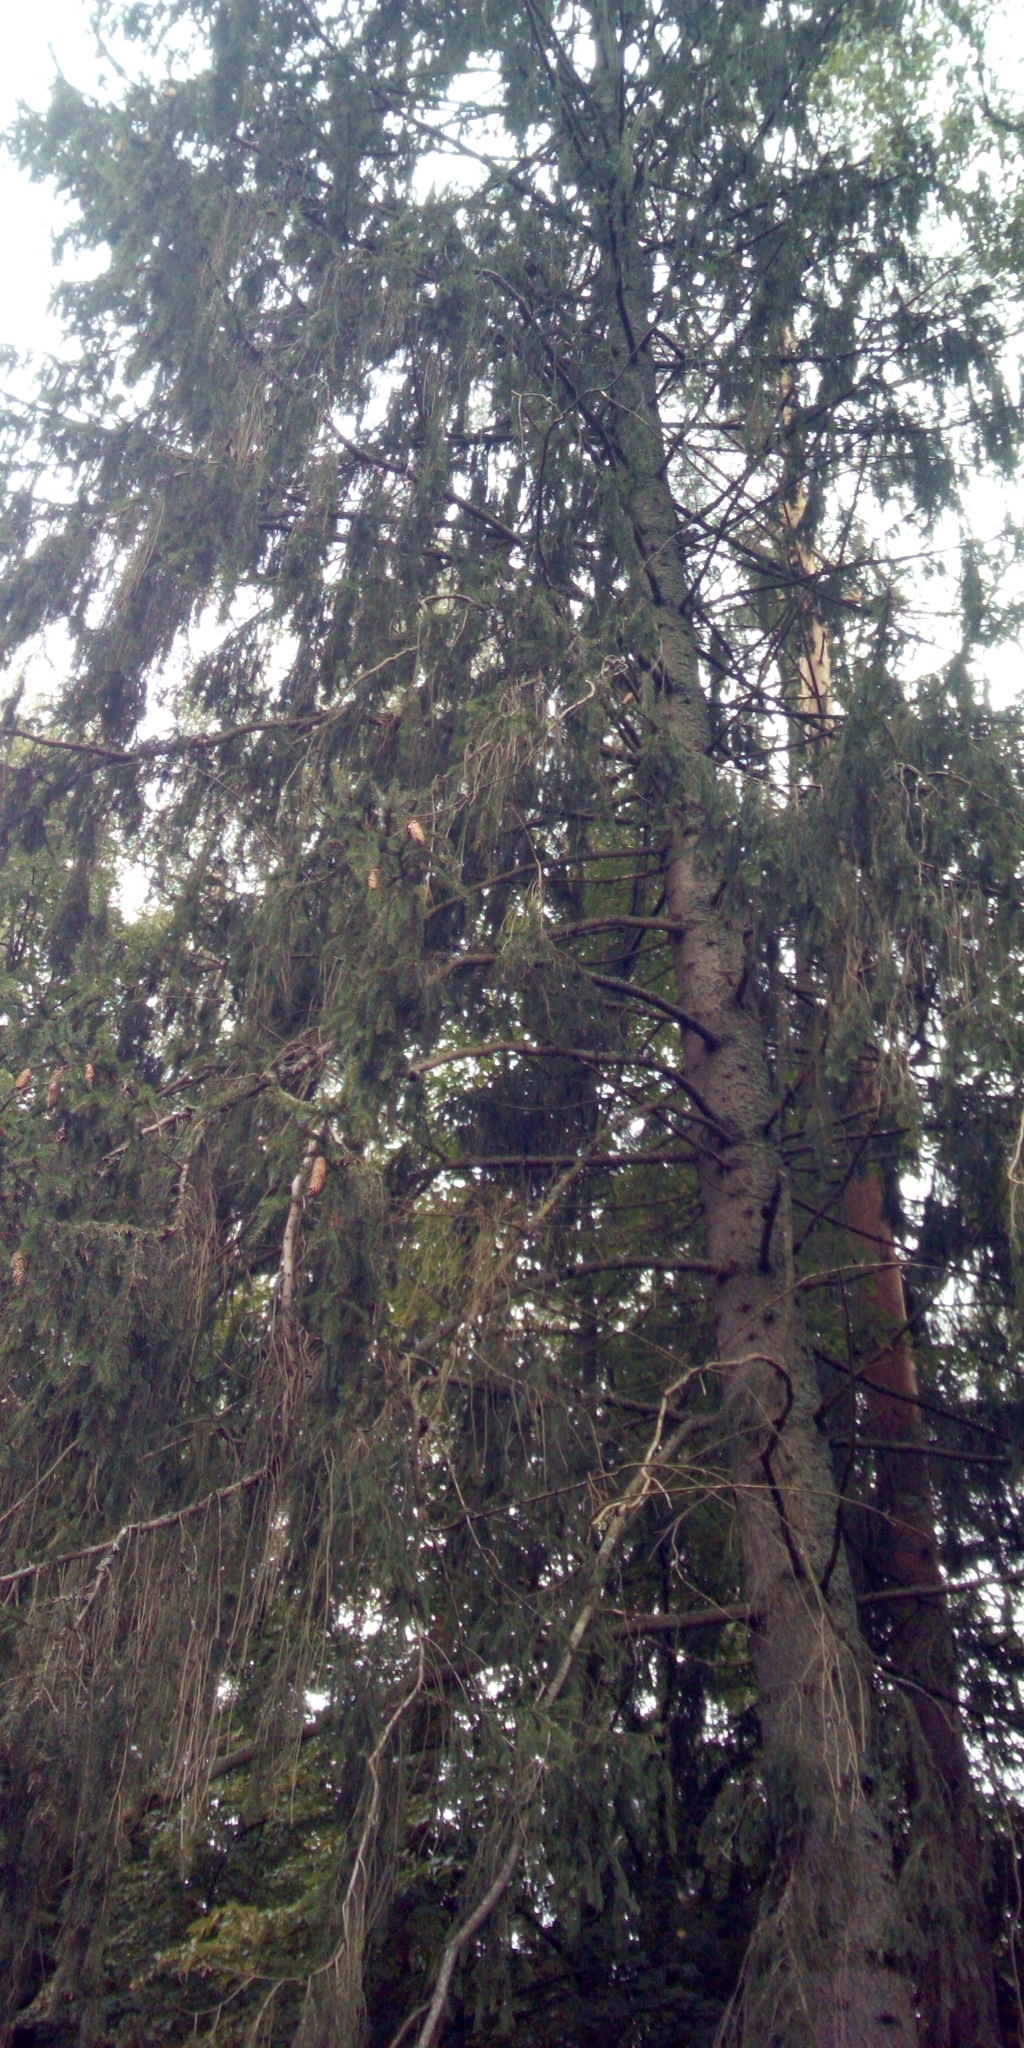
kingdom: Plantae
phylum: Tracheophyta
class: Pinopsida
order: Pinales
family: Pinaceae
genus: Picea
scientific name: Picea abies
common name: Norway spruce
